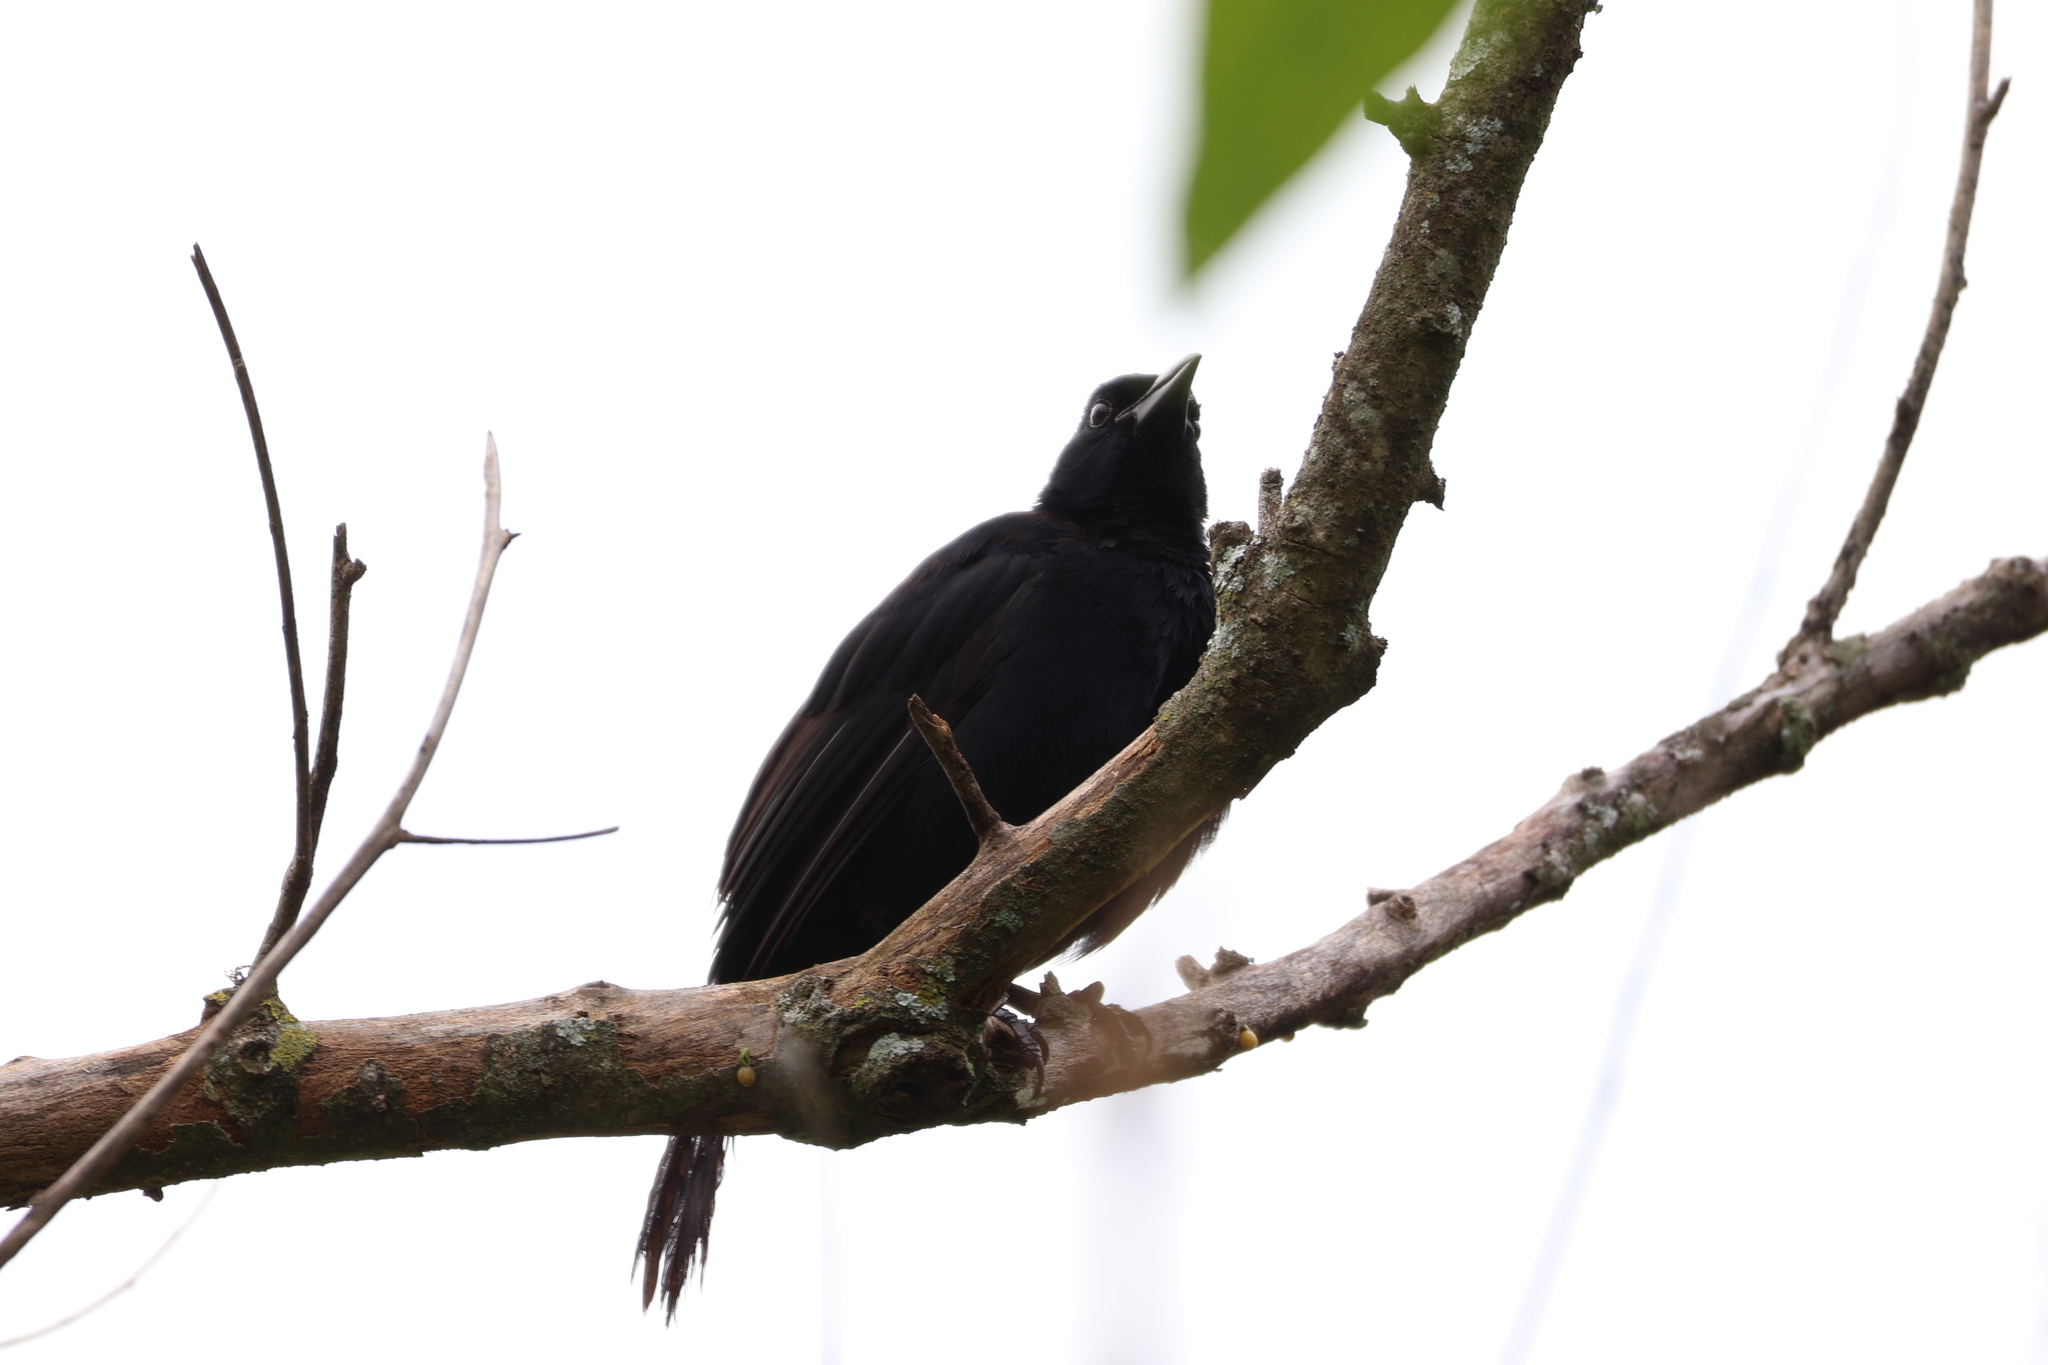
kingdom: Animalia
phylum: Chordata
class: Aves
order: Passeriformes
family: Icteridae
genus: Dives
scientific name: Dives dives
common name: Melodious blackbird
